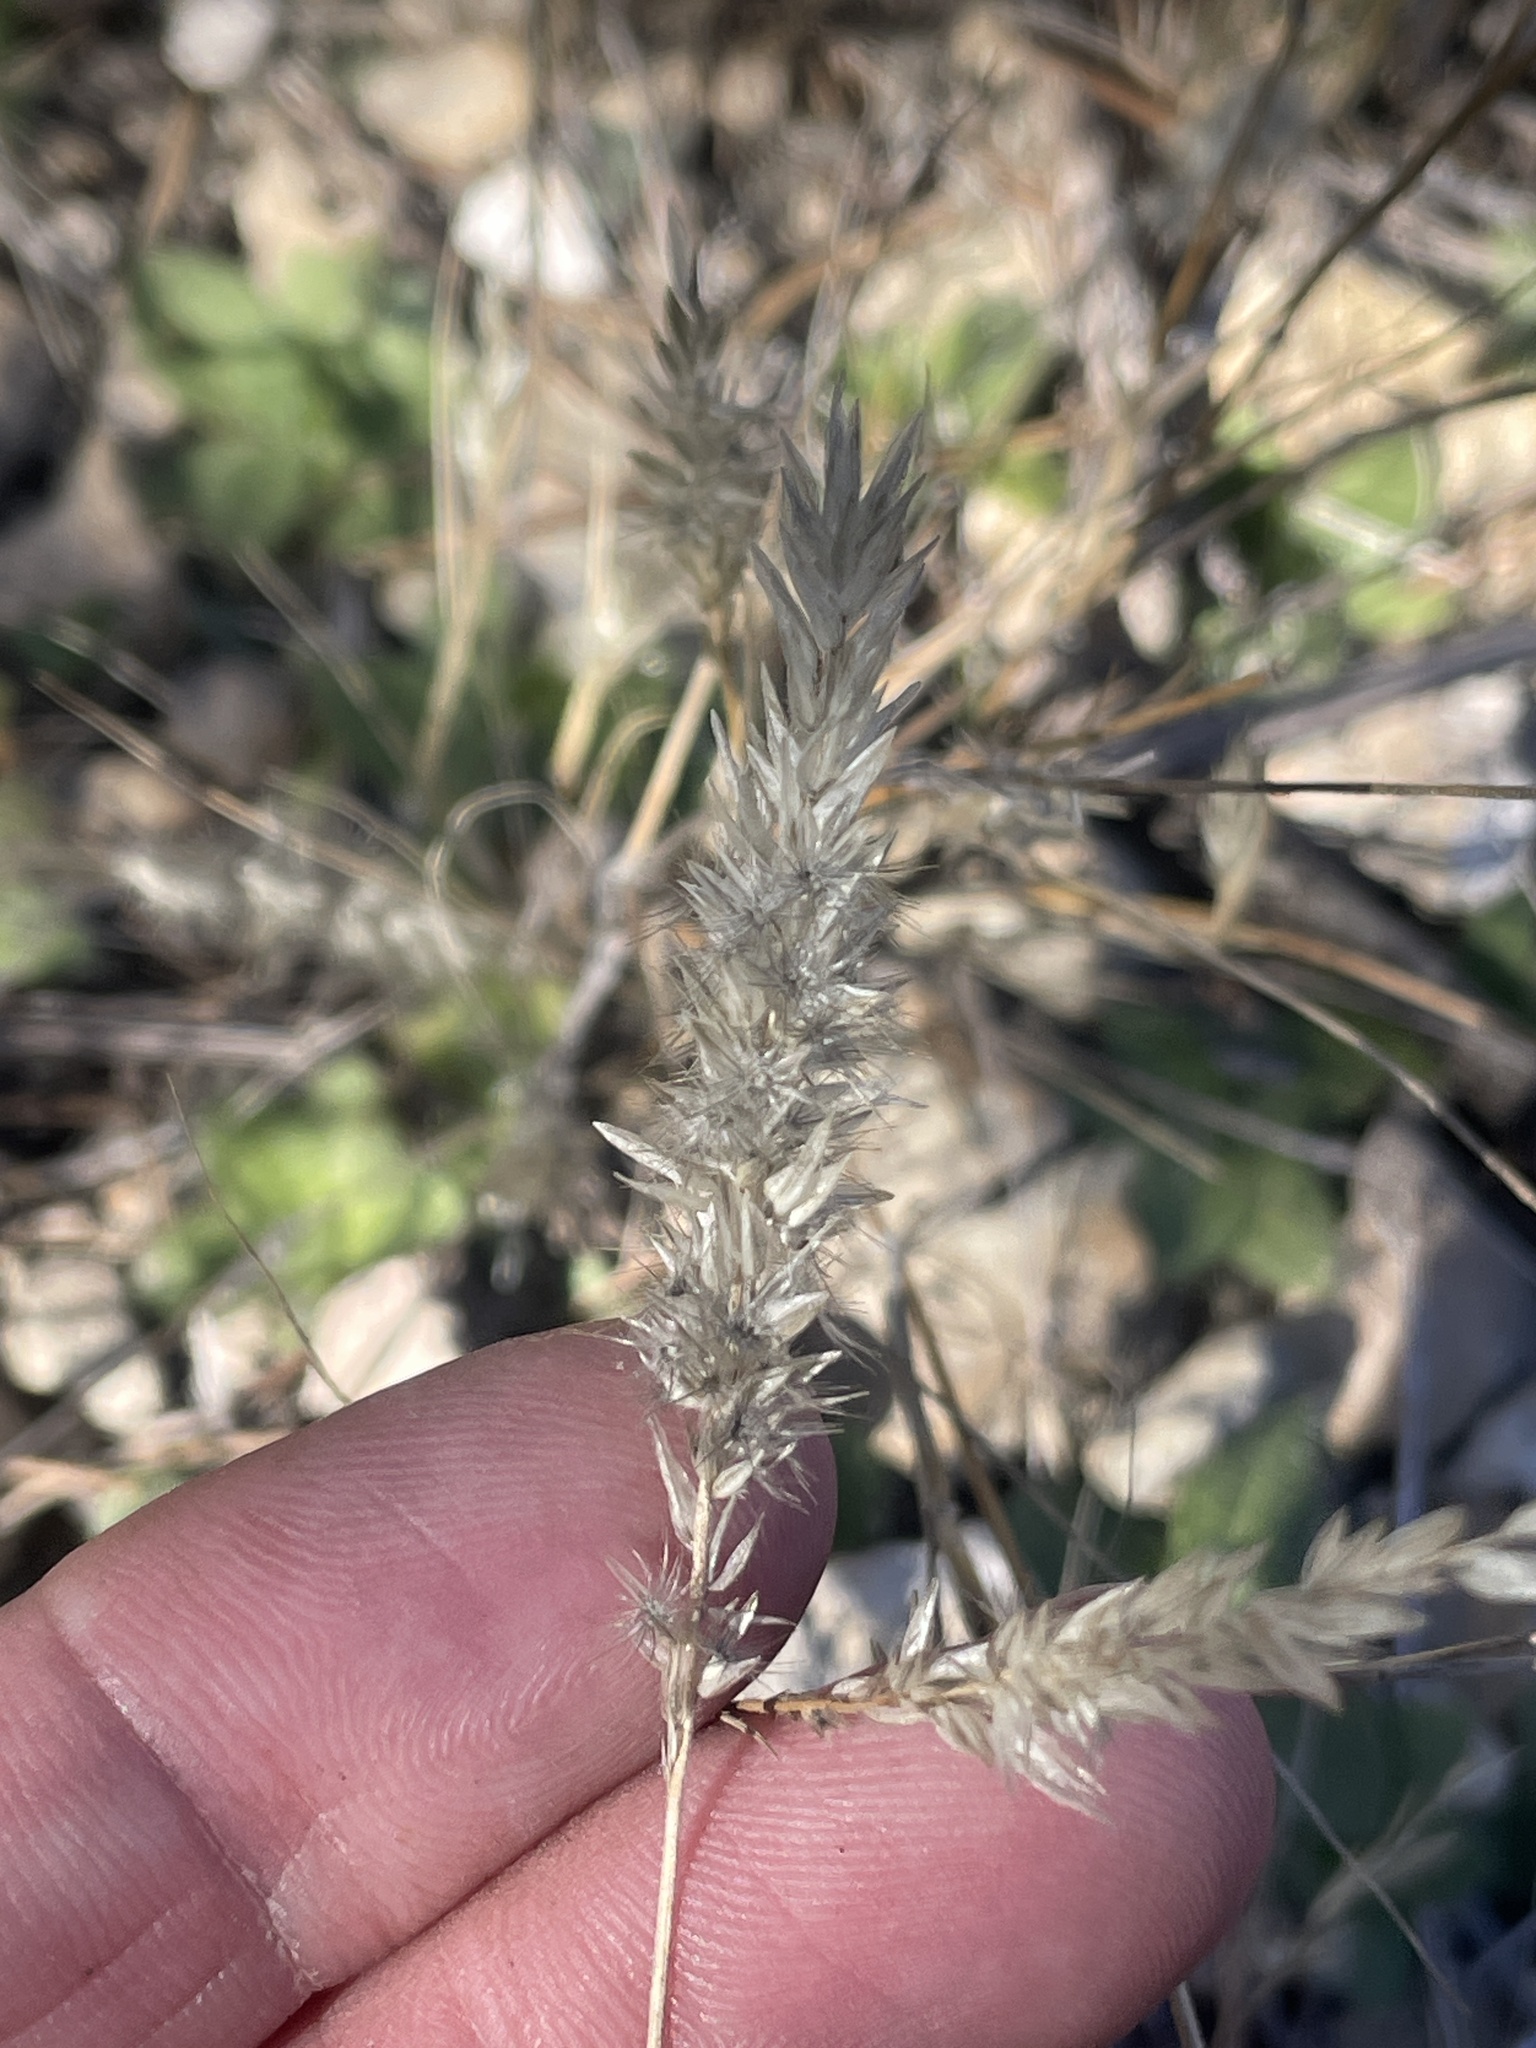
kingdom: Plantae
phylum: Tracheophyta
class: Liliopsida
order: Poales
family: Poaceae
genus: Enneapogon
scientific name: Enneapogon desvauxii
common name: Feather pappus grass
